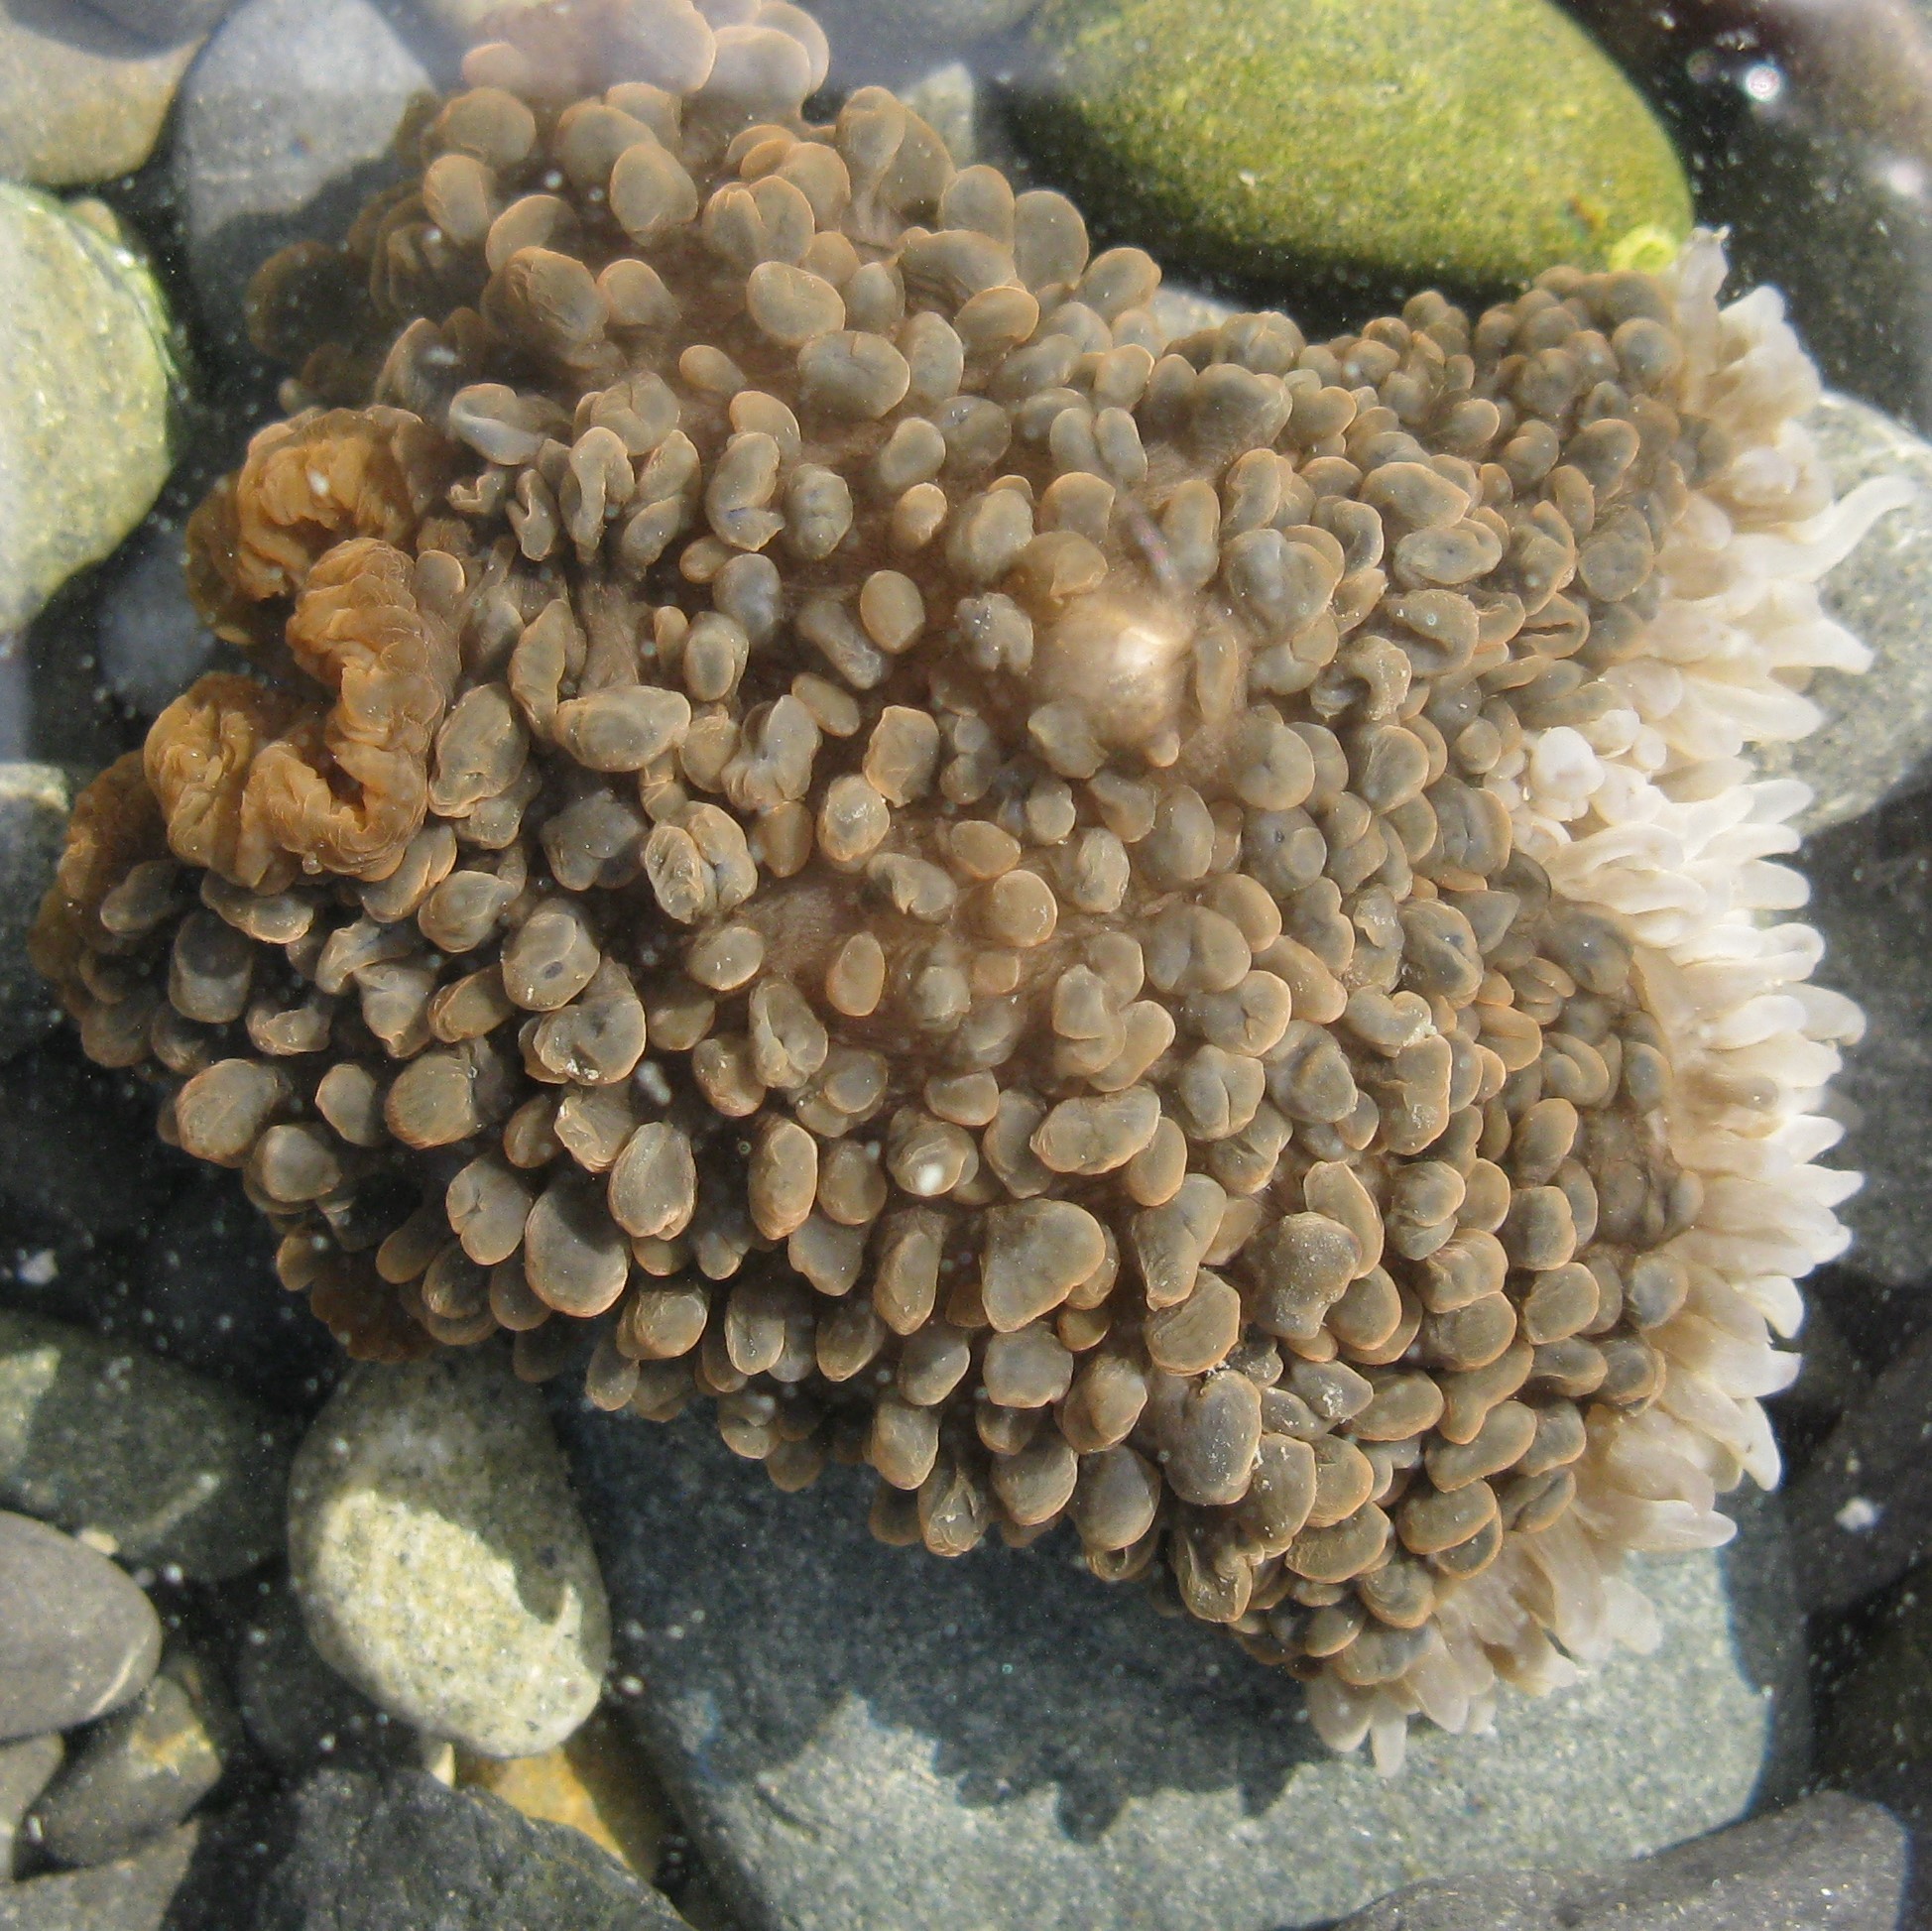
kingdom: Animalia
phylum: Cnidaria
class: Anthozoa
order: Actiniaria
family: Actiniidae
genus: Phlyctenactis
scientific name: Phlyctenactis tuberculosa
